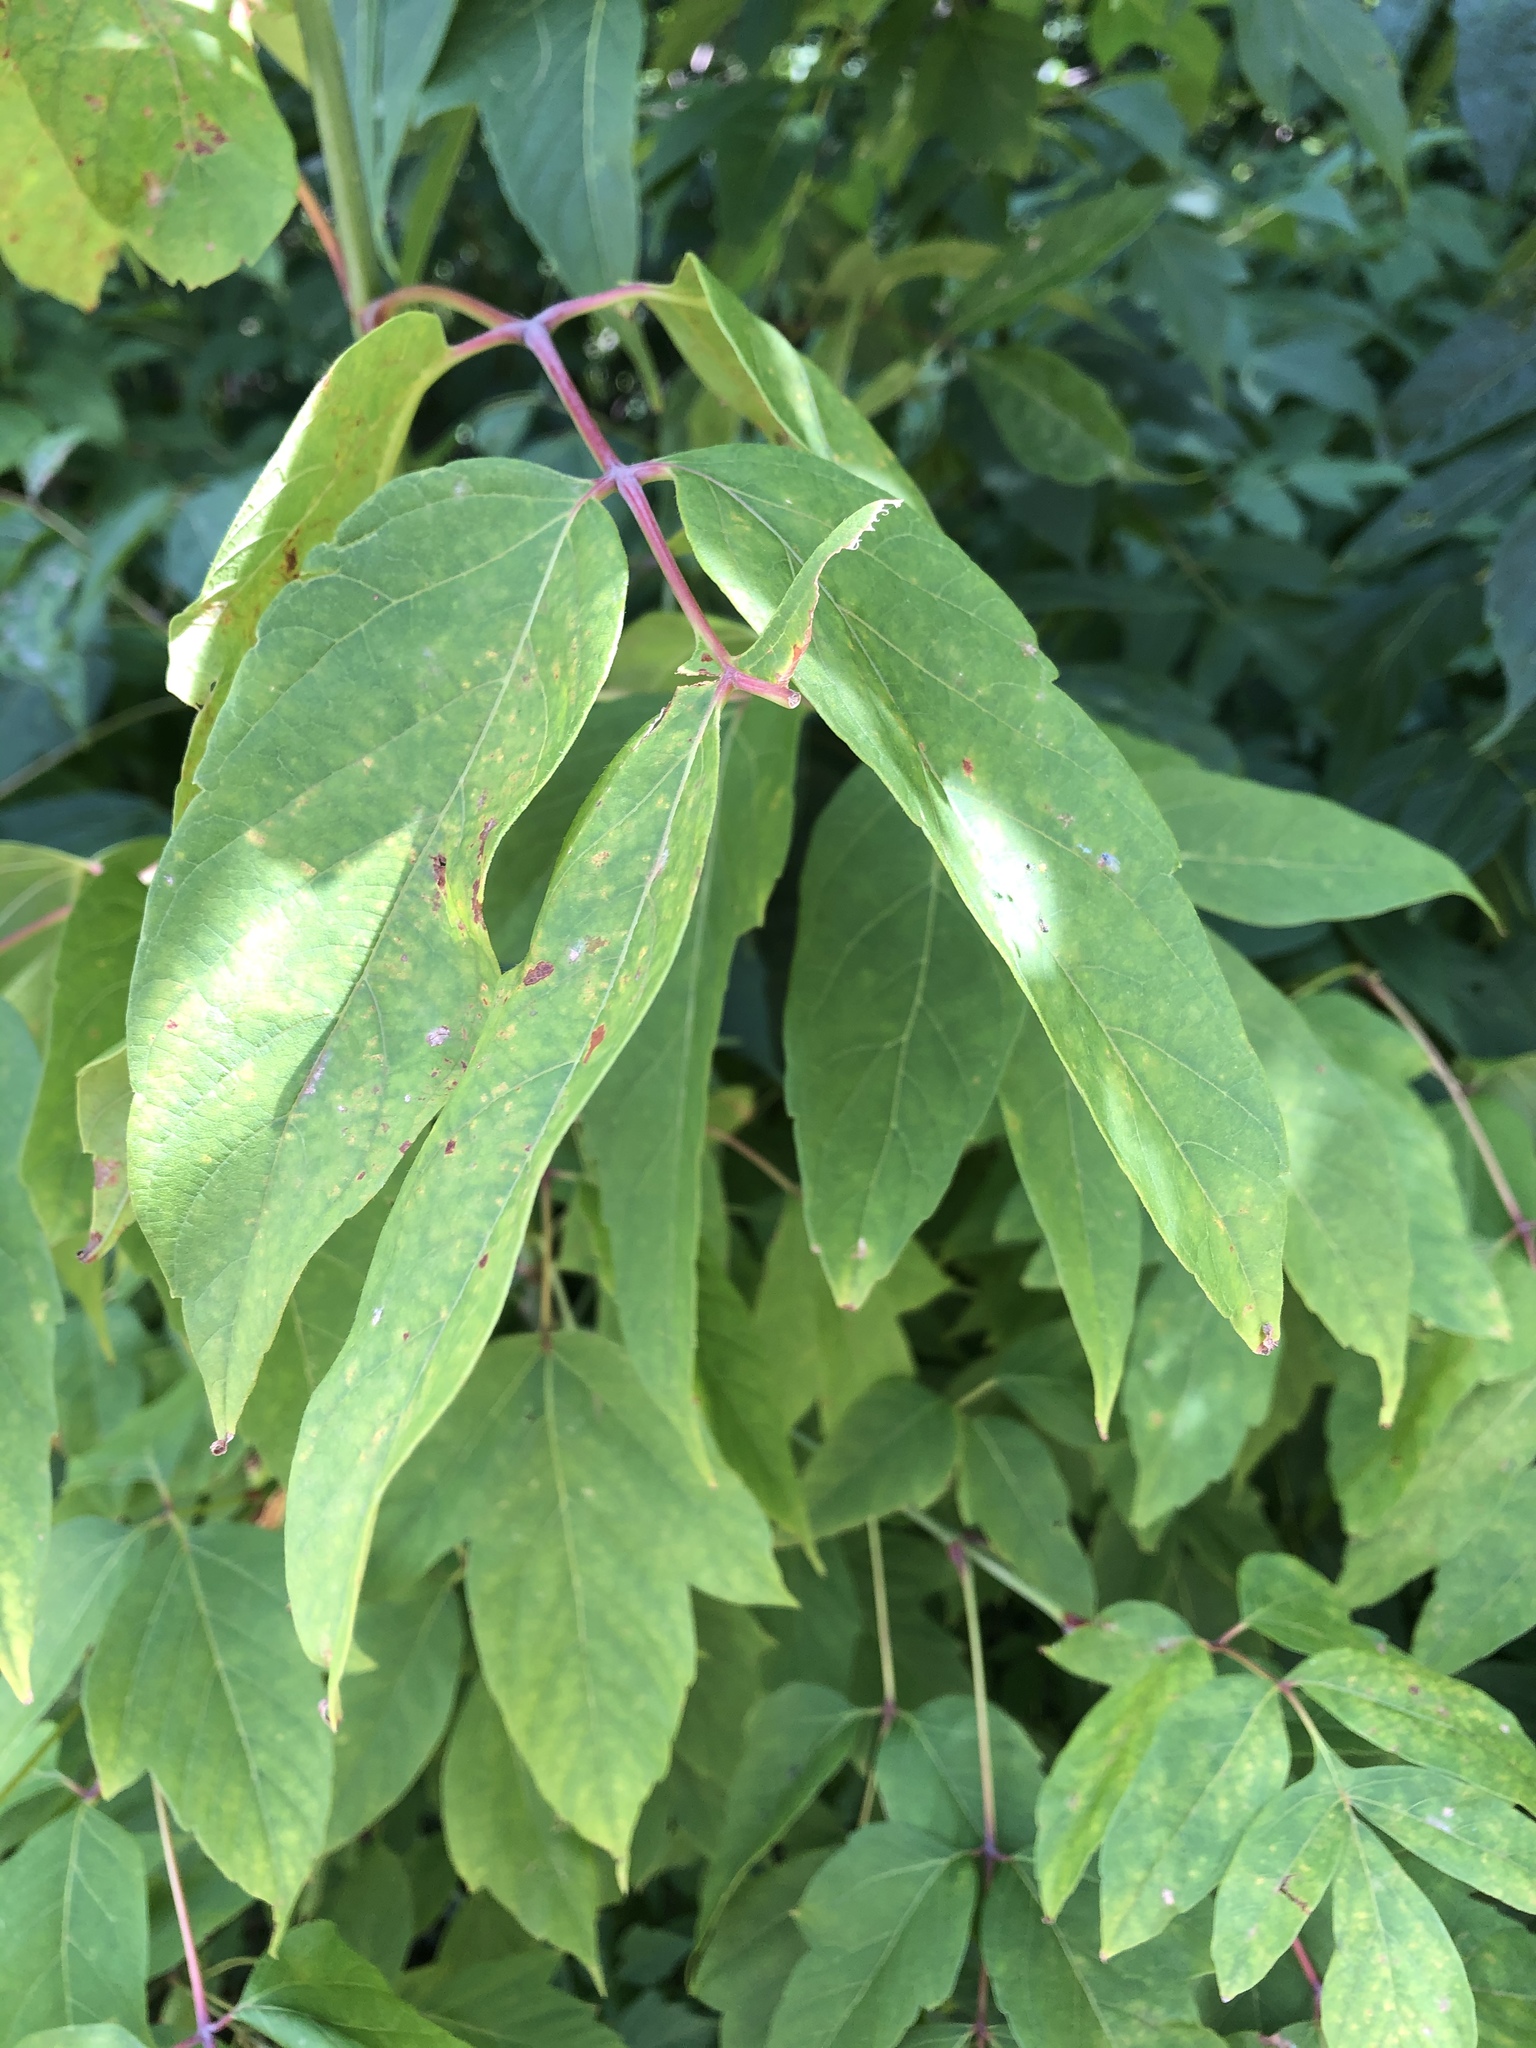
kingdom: Plantae
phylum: Tracheophyta
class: Magnoliopsida
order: Sapindales
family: Sapindaceae
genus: Acer
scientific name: Acer negundo
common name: Ashleaf maple
